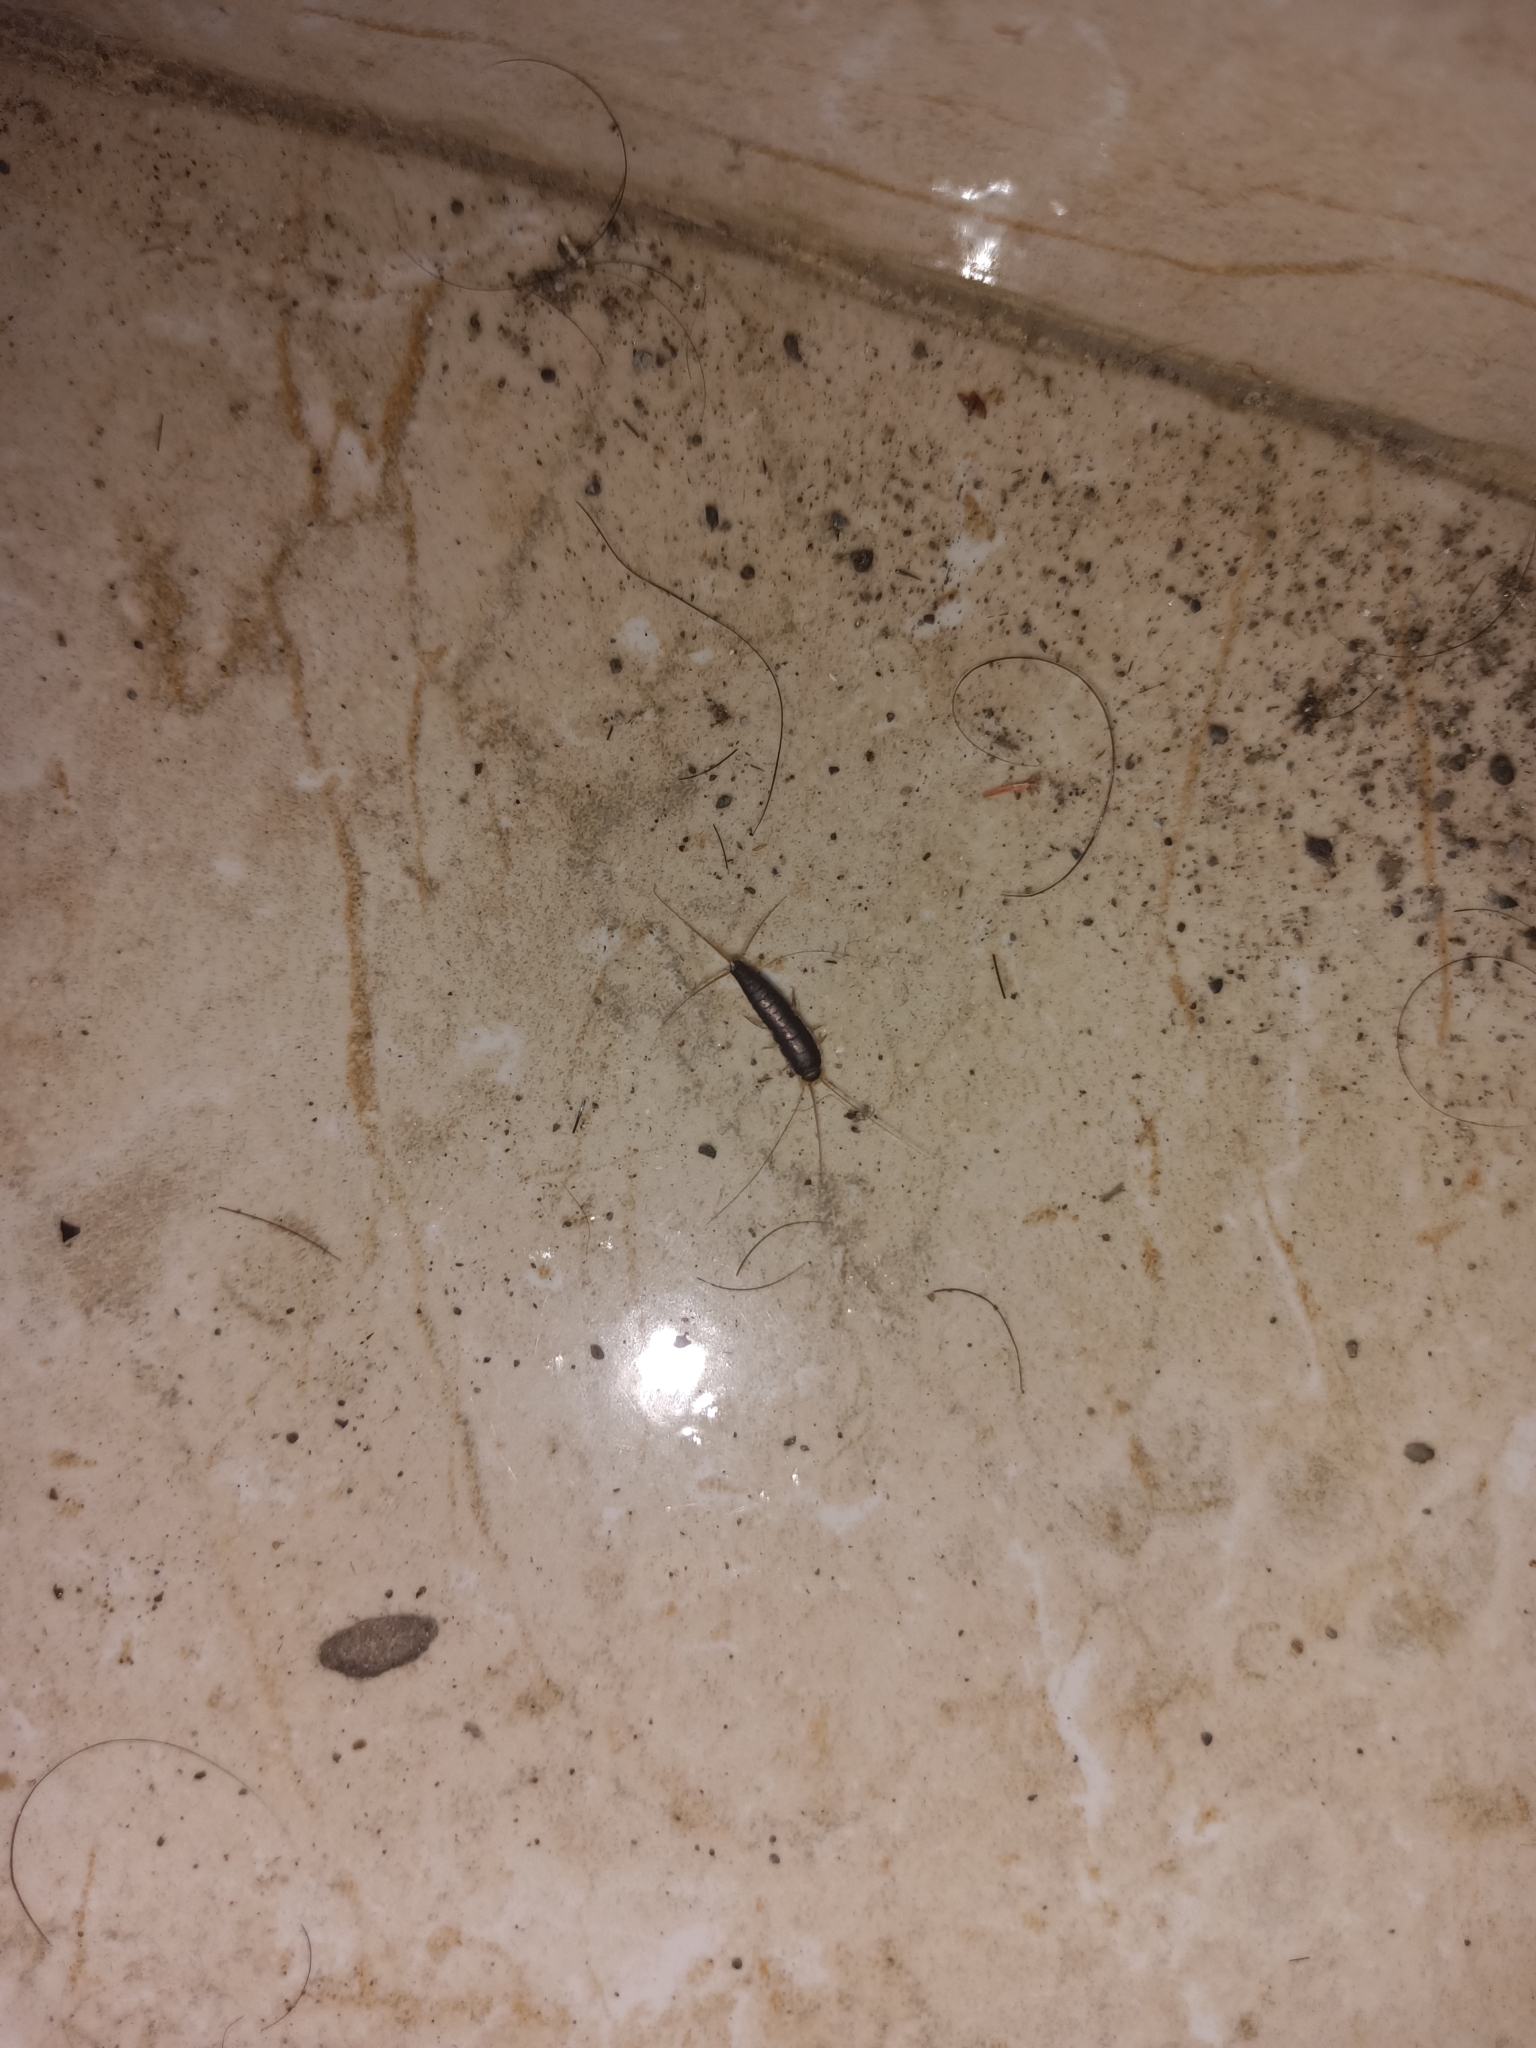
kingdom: Animalia
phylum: Arthropoda
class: Insecta
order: Zygentoma
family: Lepismatidae
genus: Ctenolepisma
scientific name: Ctenolepisma longicaudatum
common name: Silverfish
